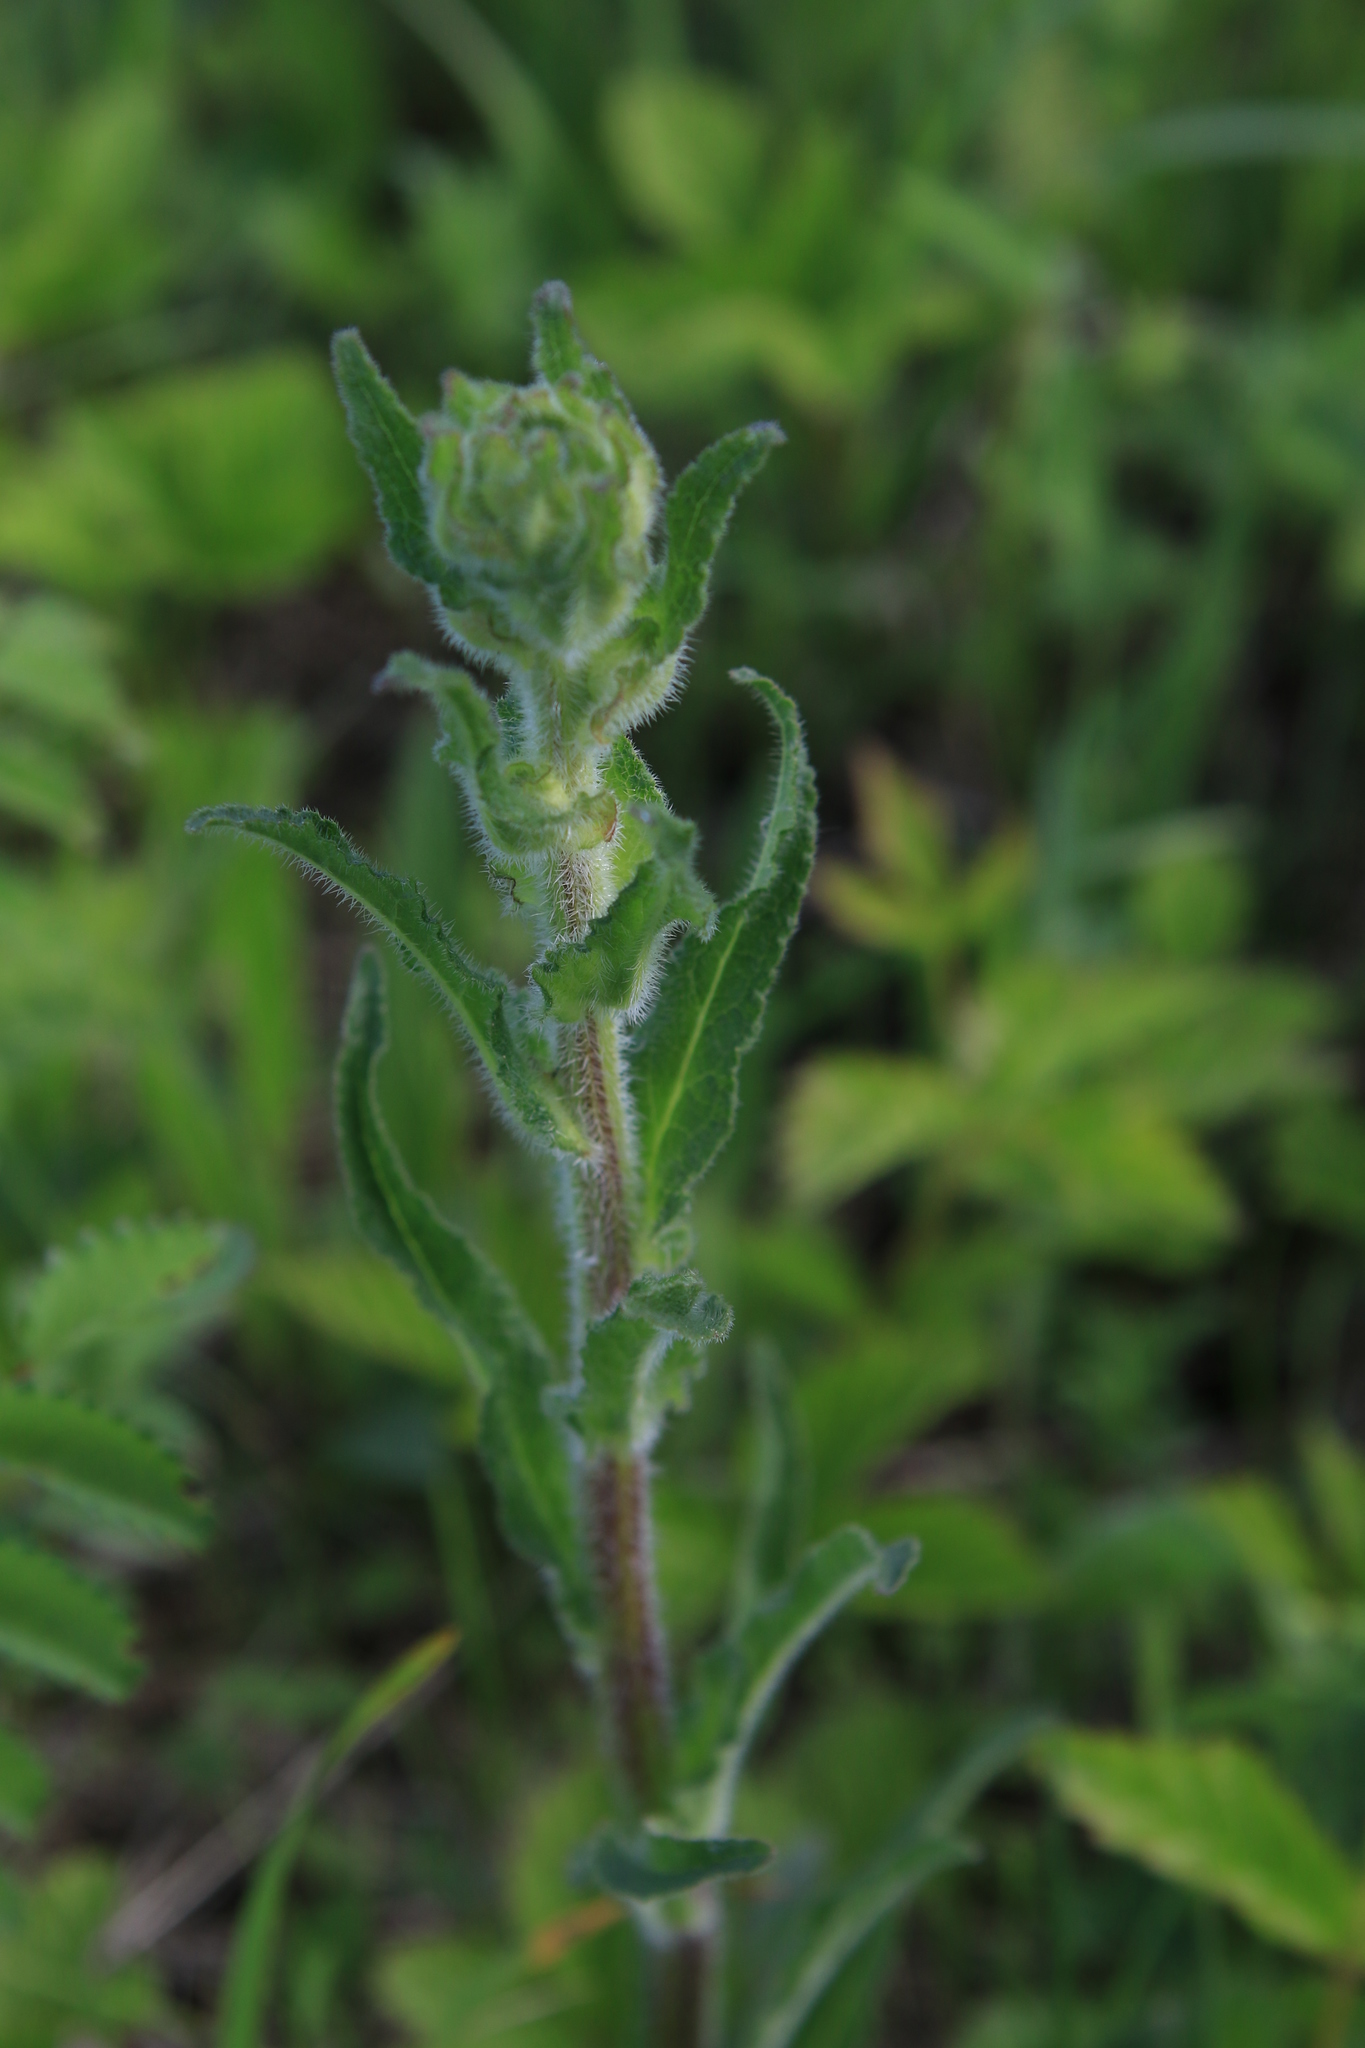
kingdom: Plantae
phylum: Tracheophyta
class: Magnoliopsida
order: Asterales
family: Campanulaceae
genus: Campanula
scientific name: Campanula cervicaria
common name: Bristly bellflower
